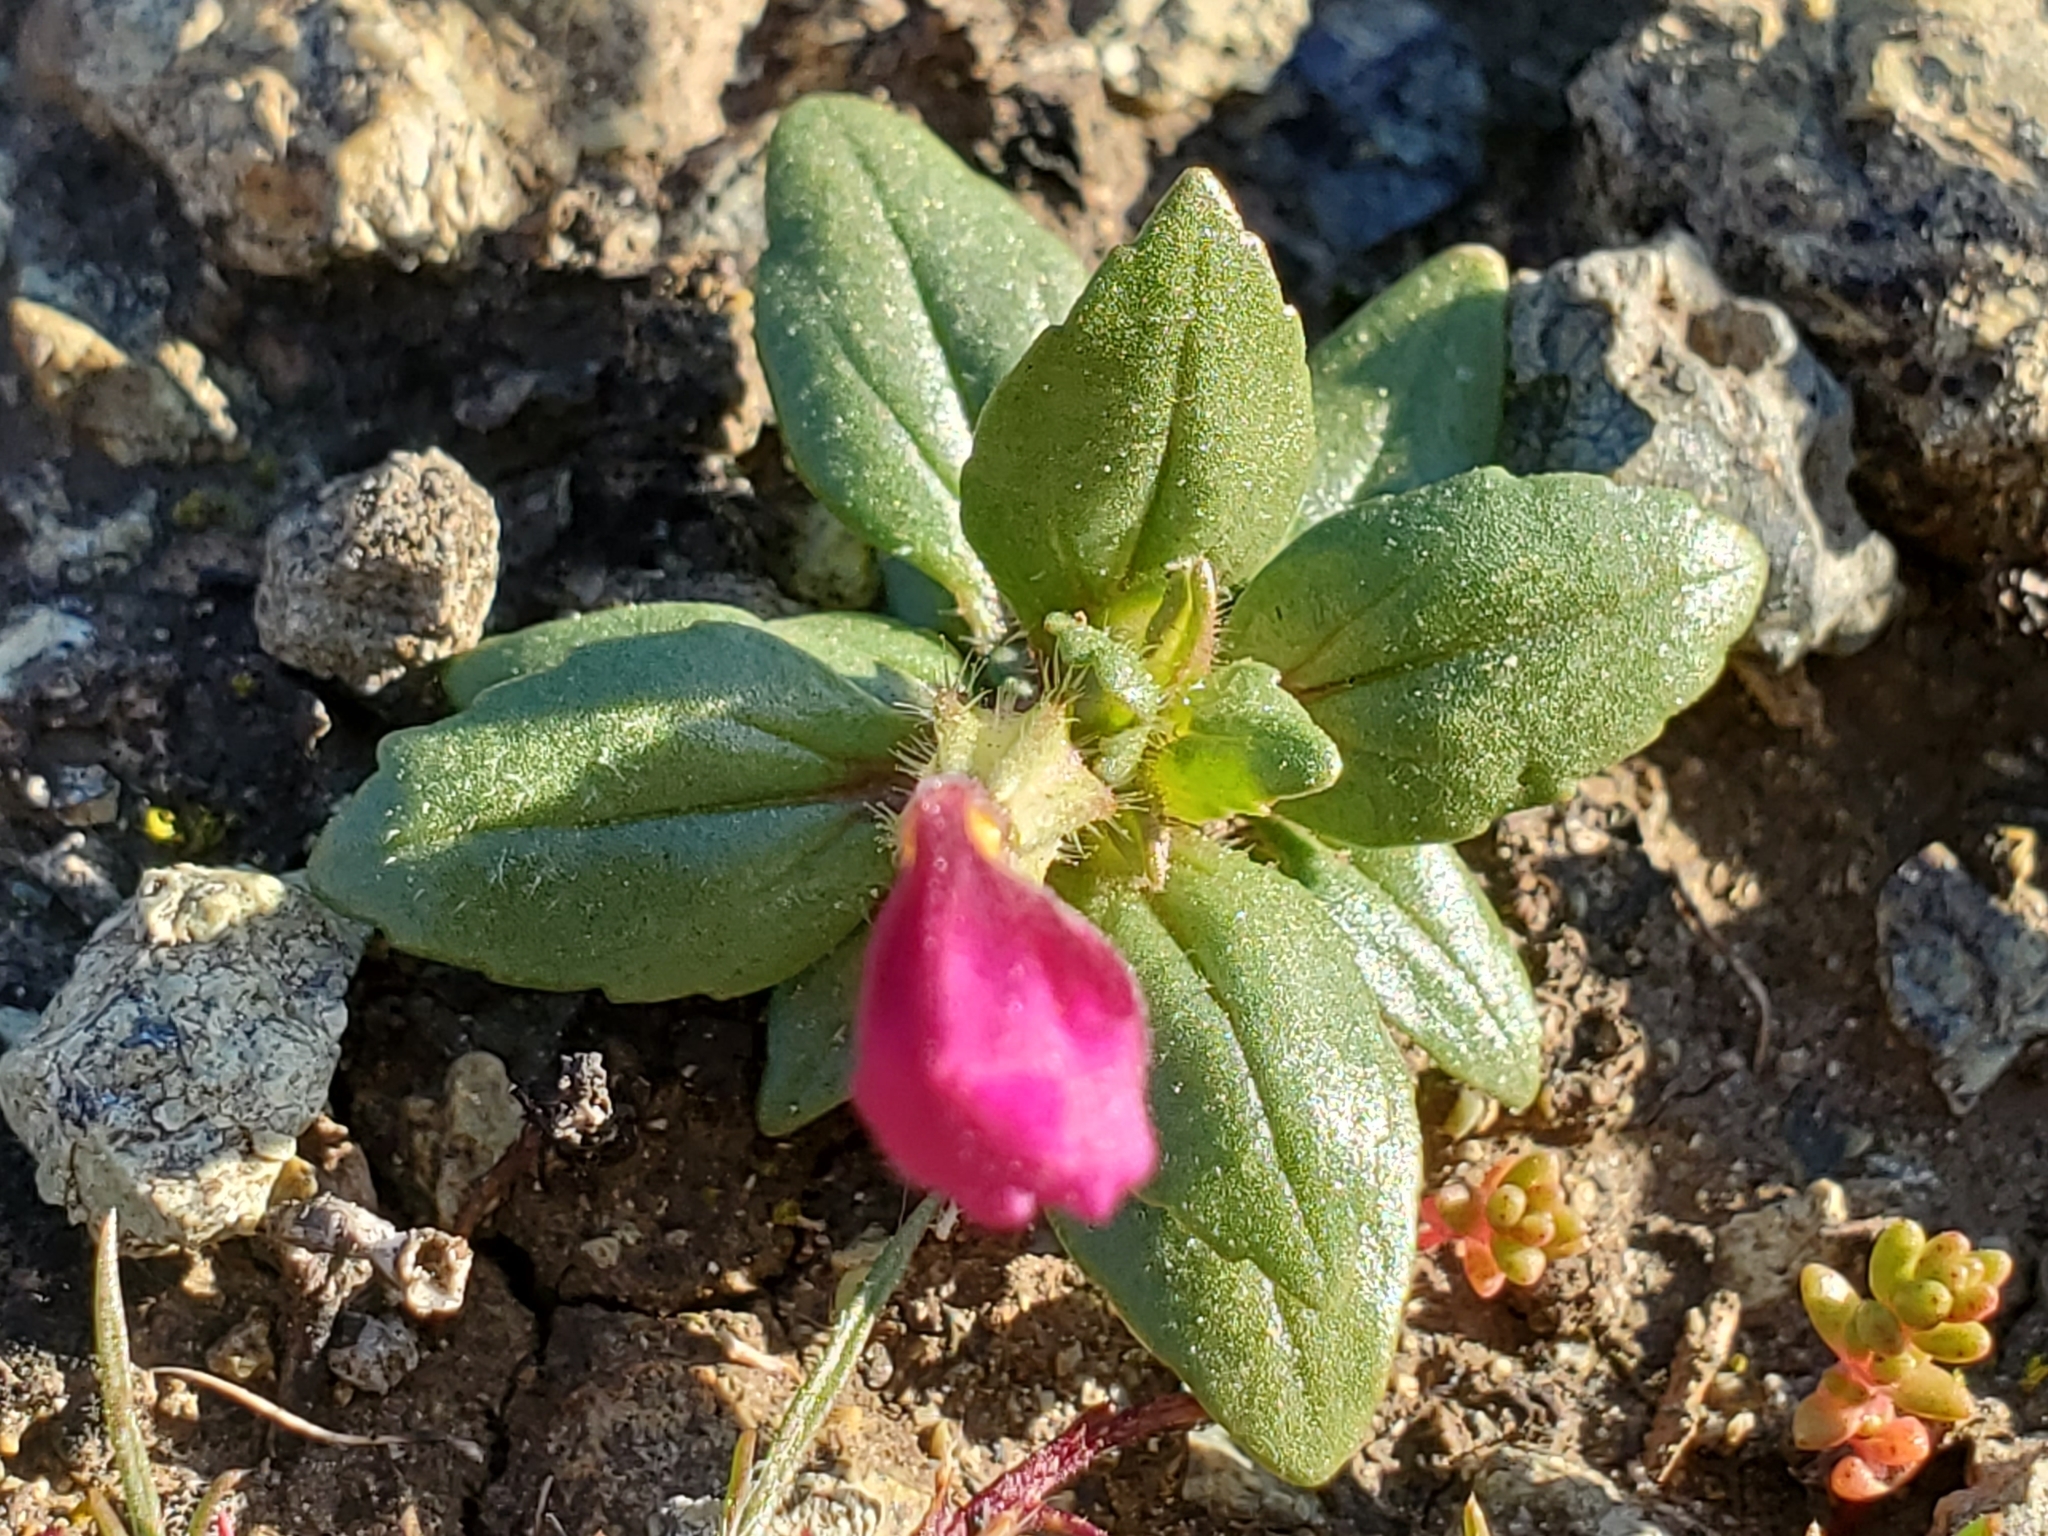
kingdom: Plantae
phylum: Tracheophyta
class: Magnoliopsida
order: Lamiales
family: Phrymaceae
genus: Diplacus
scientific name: Diplacus douglasii
